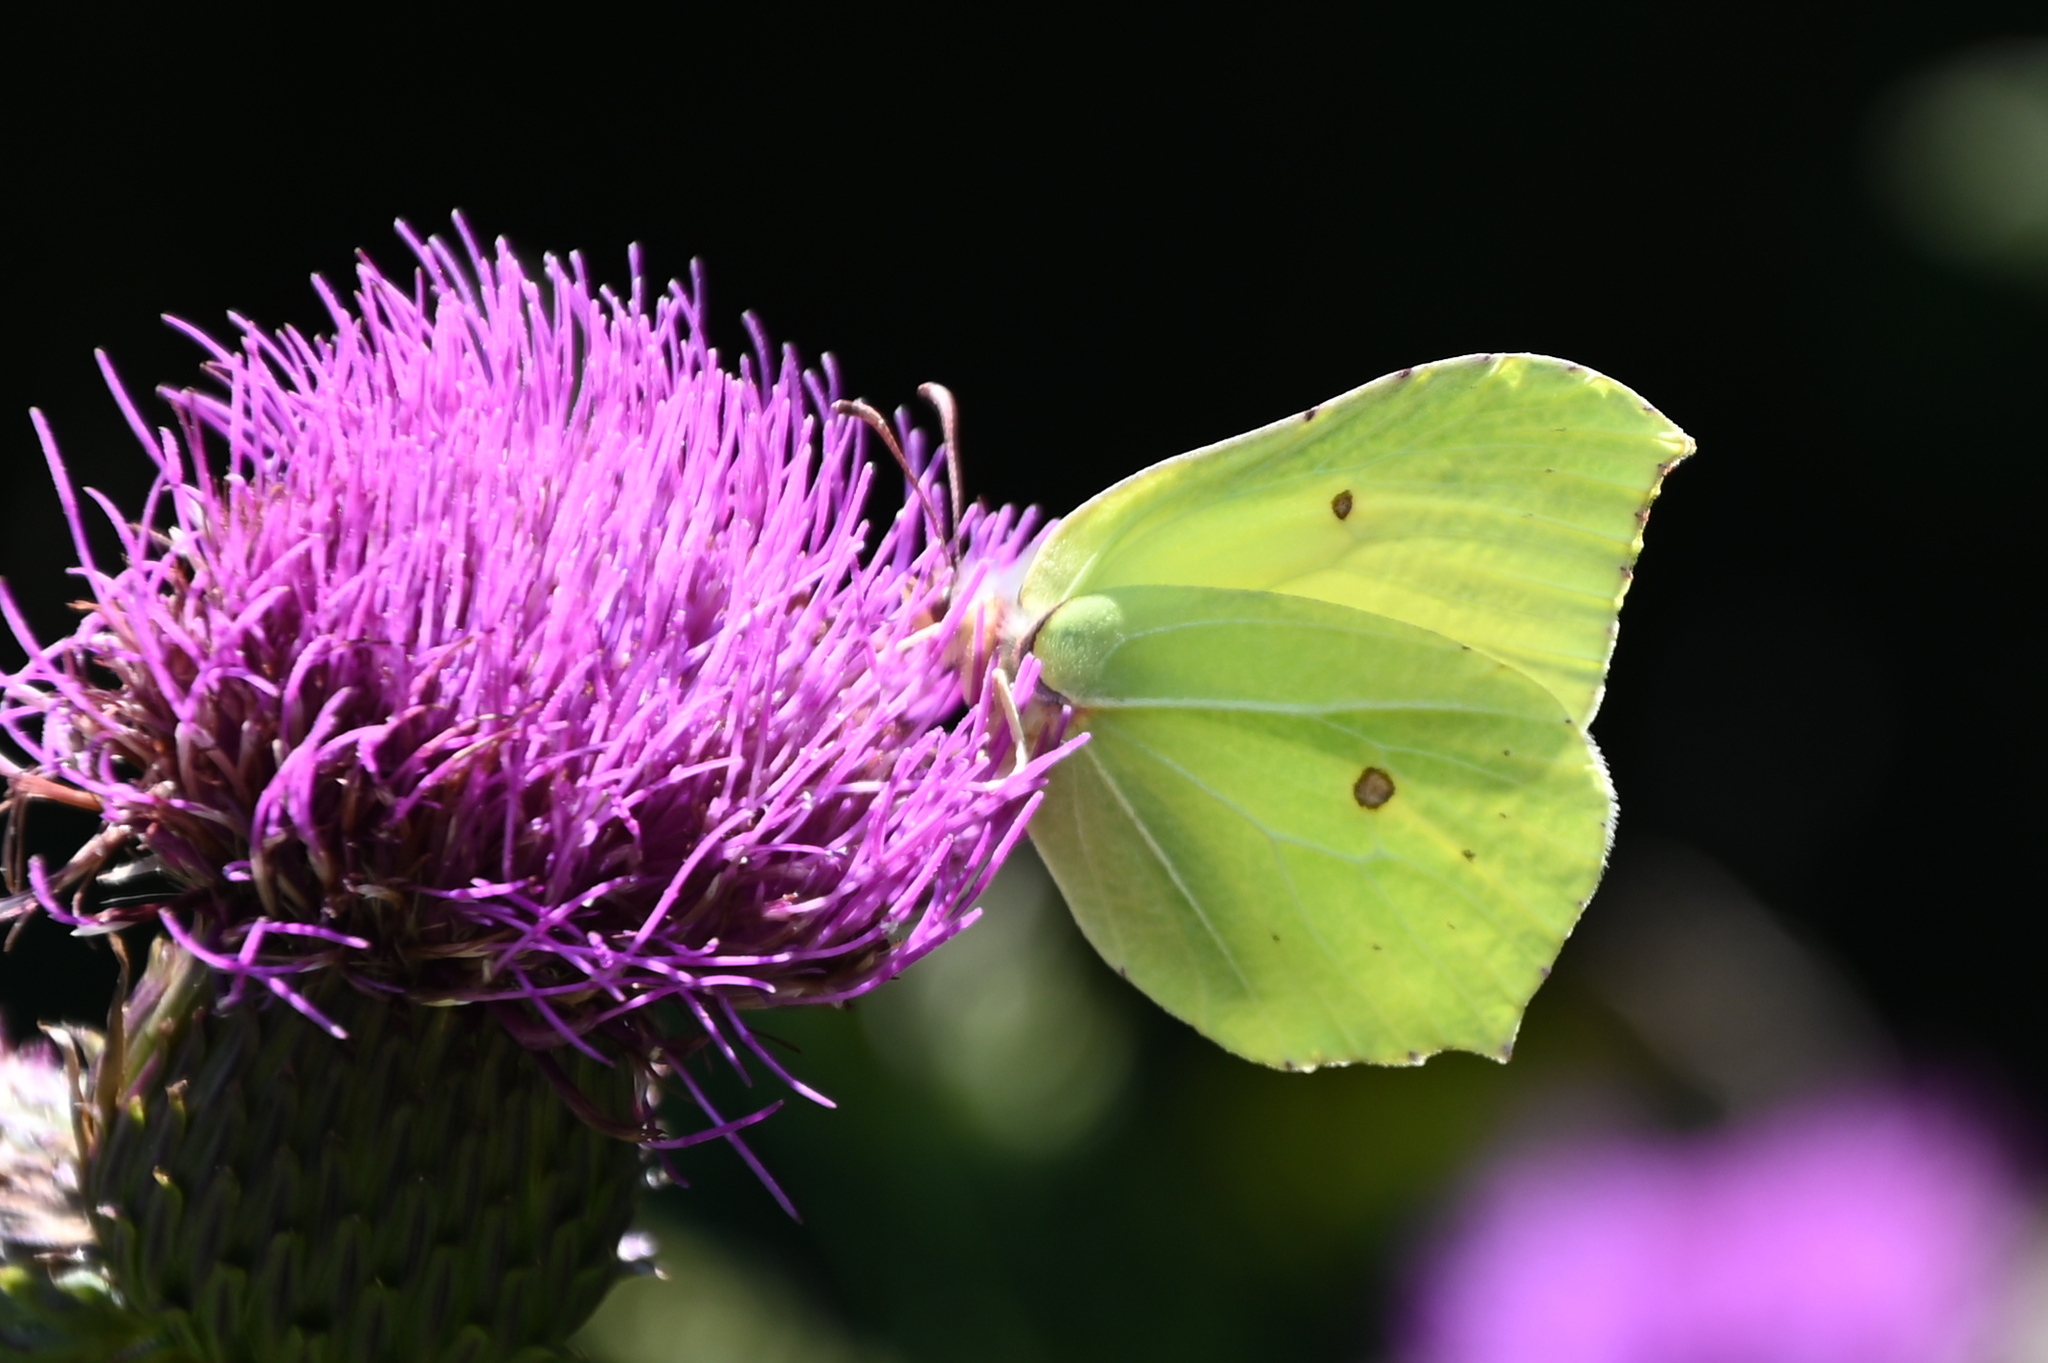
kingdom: Animalia
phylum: Arthropoda
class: Insecta
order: Lepidoptera
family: Pieridae
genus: Gonepteryx
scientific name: Gonepteryx rhamni
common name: Brimstone
